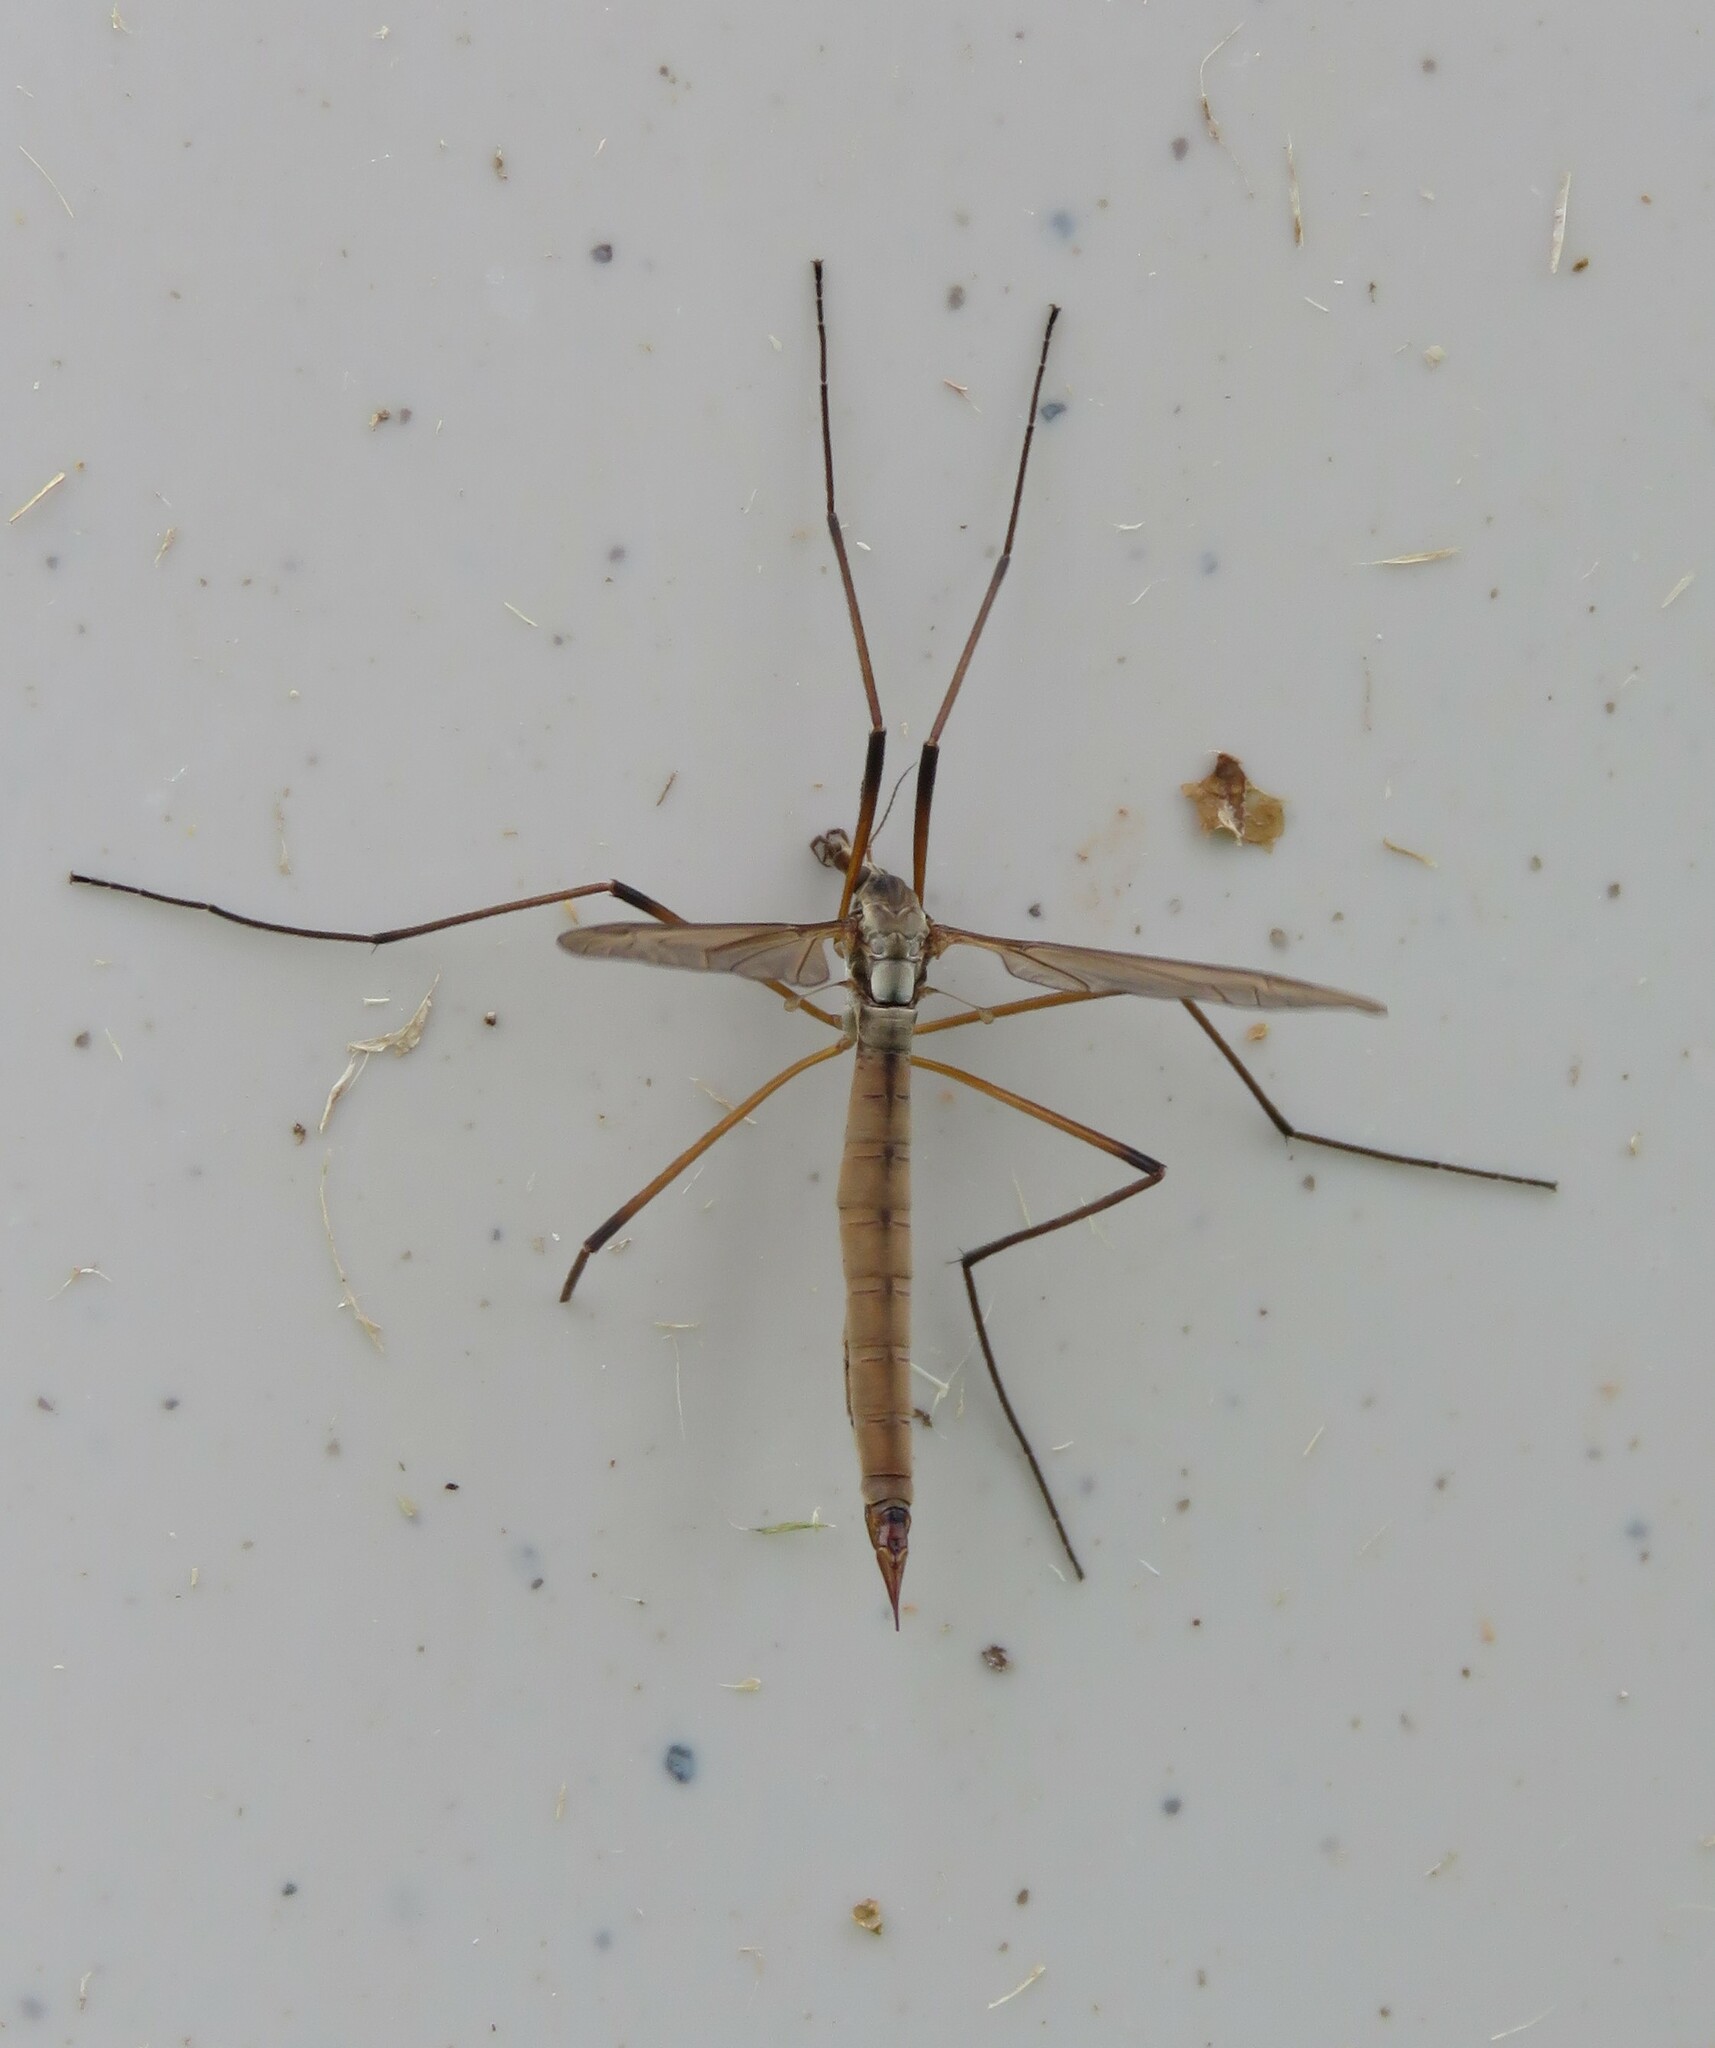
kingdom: Animalia
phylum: Arthropoda
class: Insecta
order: Diptera
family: Tipulidae
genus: Tipula
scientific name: Tipula paludosa
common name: European cranefly
